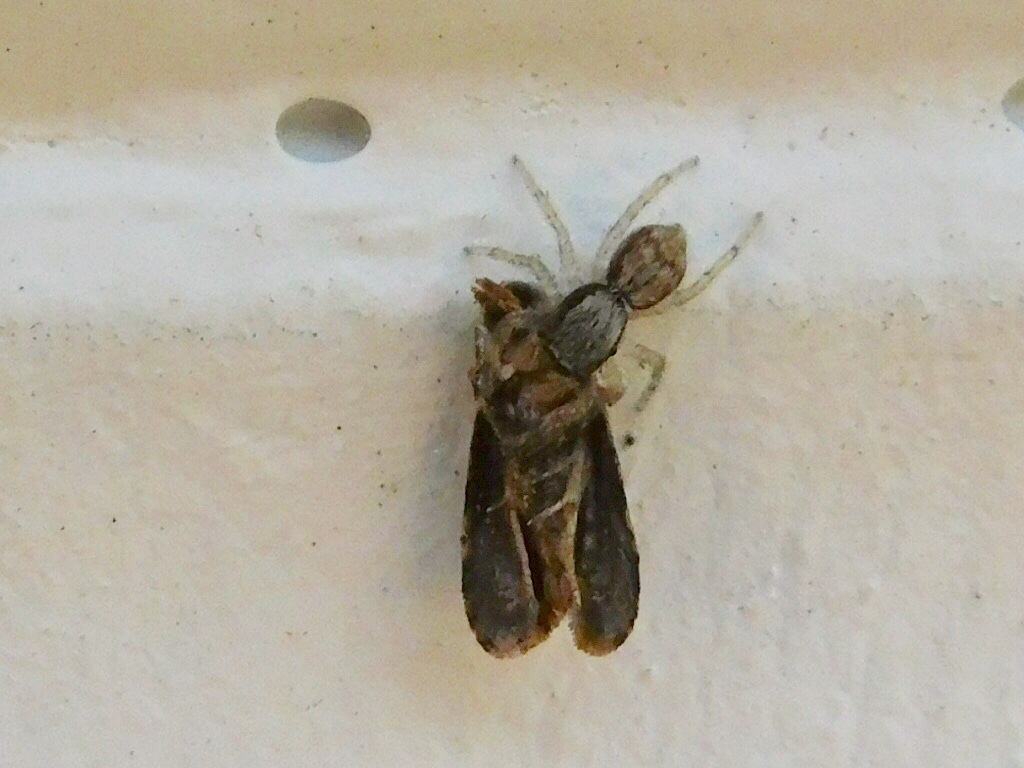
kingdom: Animalia
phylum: Arthropoda
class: Arachnida
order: Araneae
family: Salticidae
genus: Menemerus
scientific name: Menemerus bivittatus
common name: Gray wall jumper
